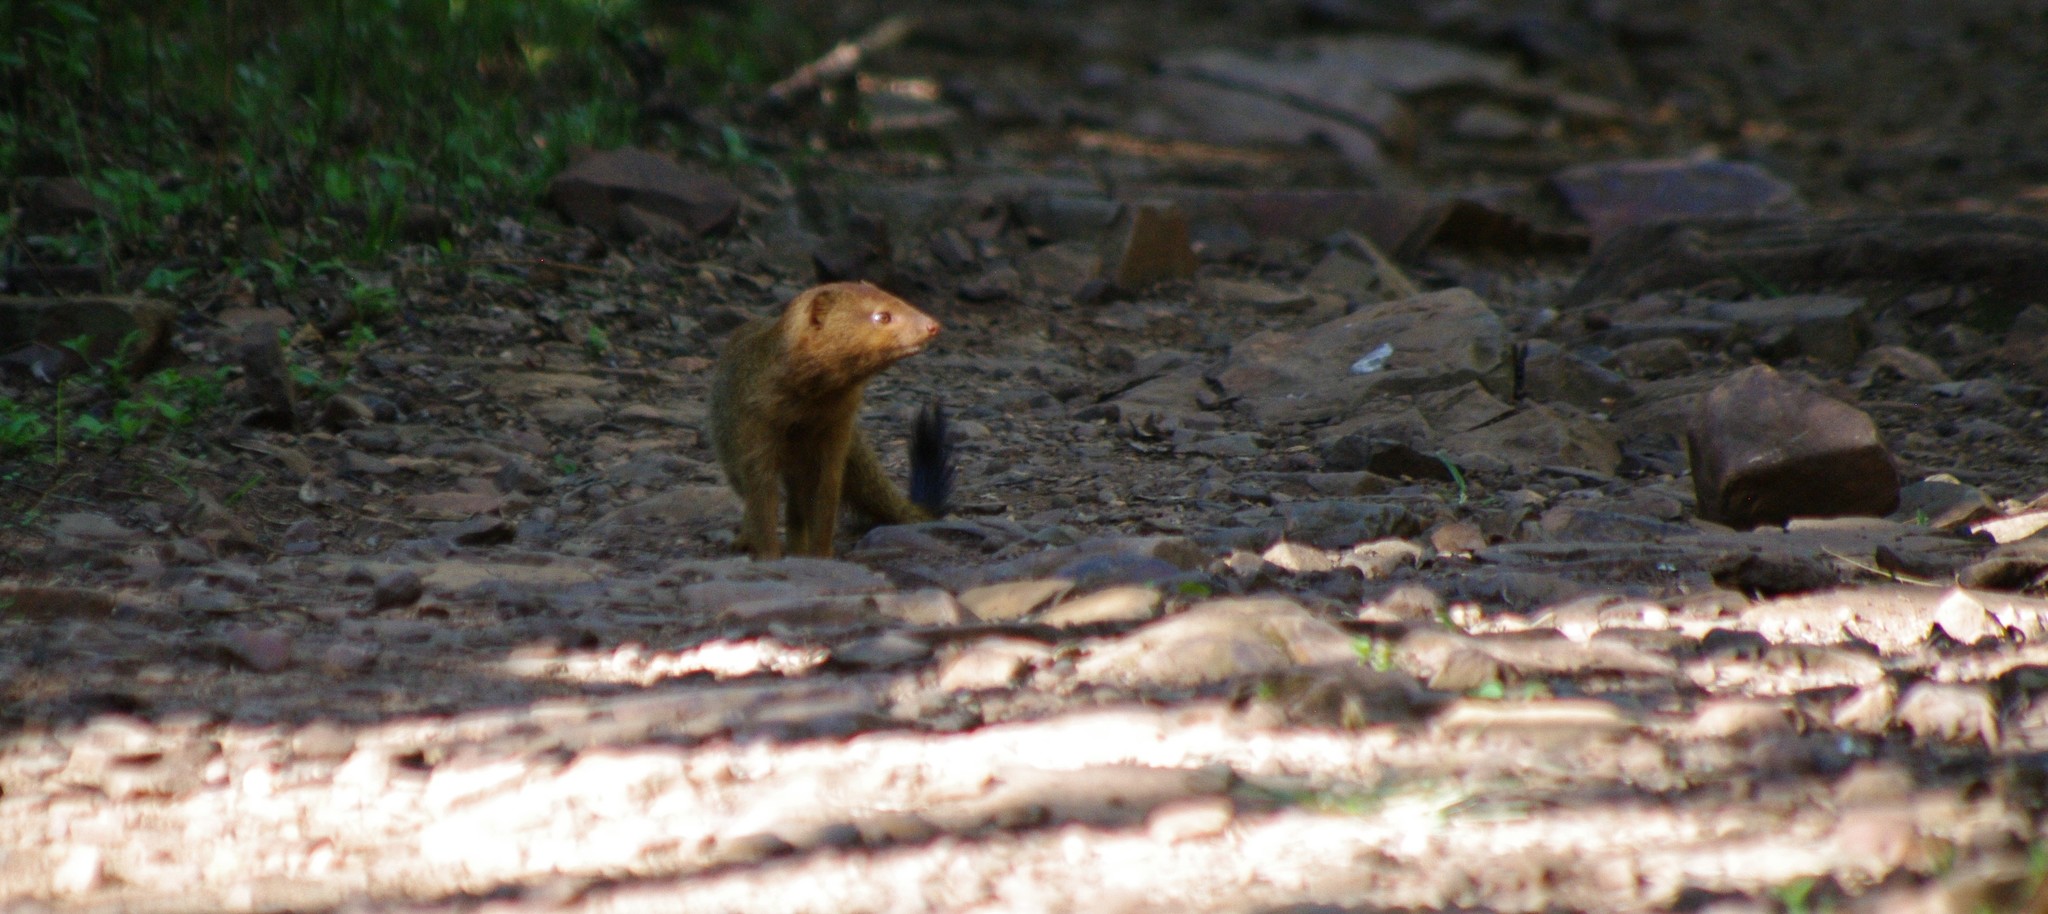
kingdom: Animalia
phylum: Chordata
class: Mammalia
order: Carnivora
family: Herpestidae
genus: Galerella
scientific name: Galerella sanguinea
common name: Slender mongoose
